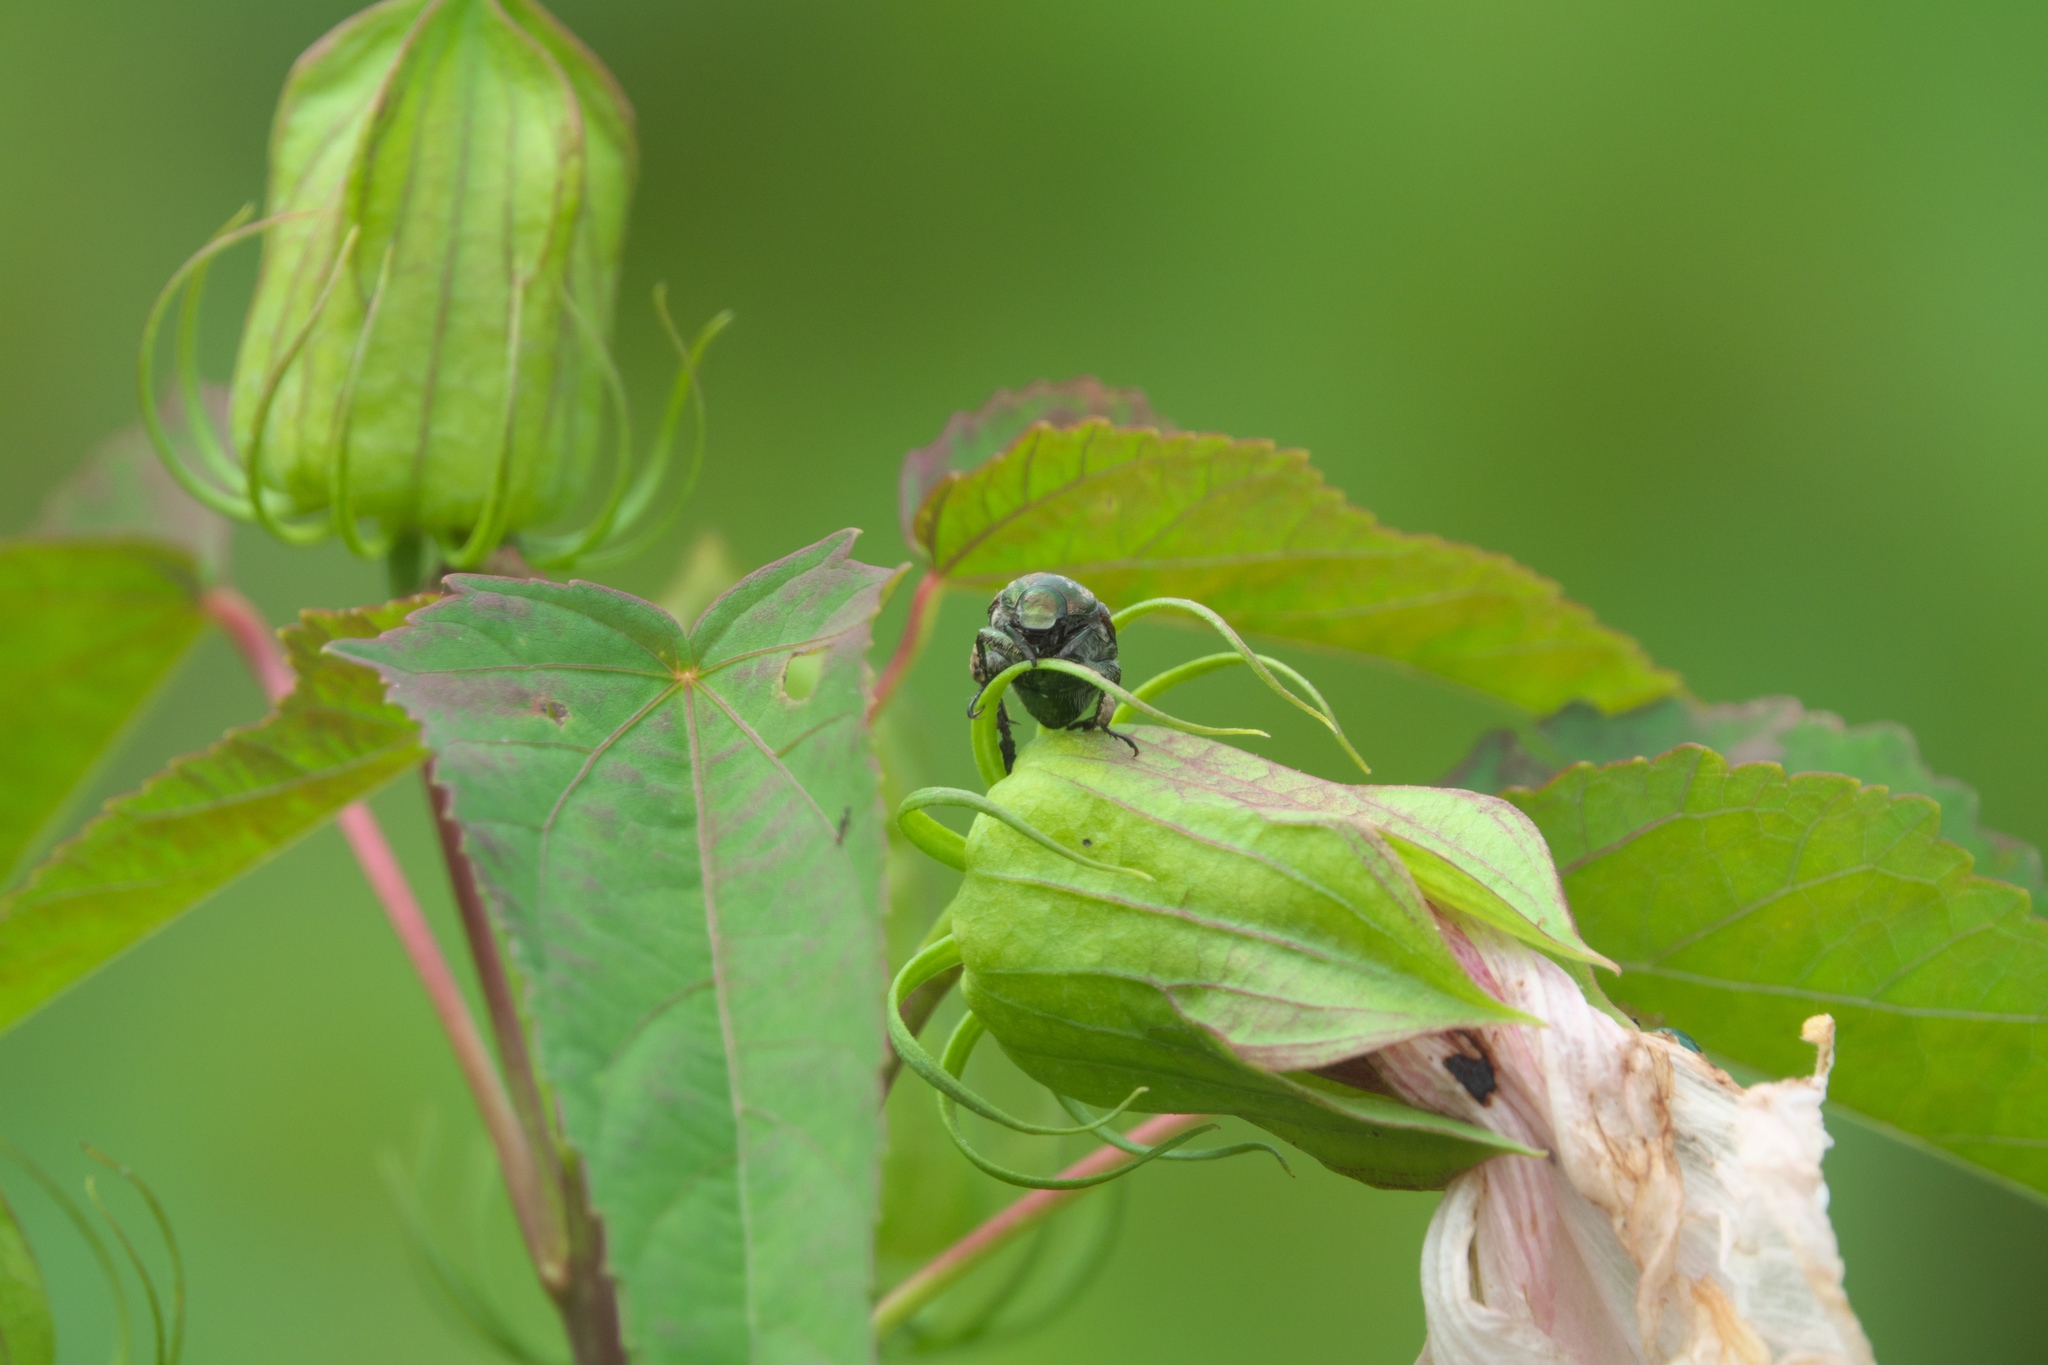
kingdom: Plantae
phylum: Tracheophyta
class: Magnoliopsida
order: Malvales
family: Malvaceae
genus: Hibiscus
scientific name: Hibiscus laevis
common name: Scarlet rose-mallow
